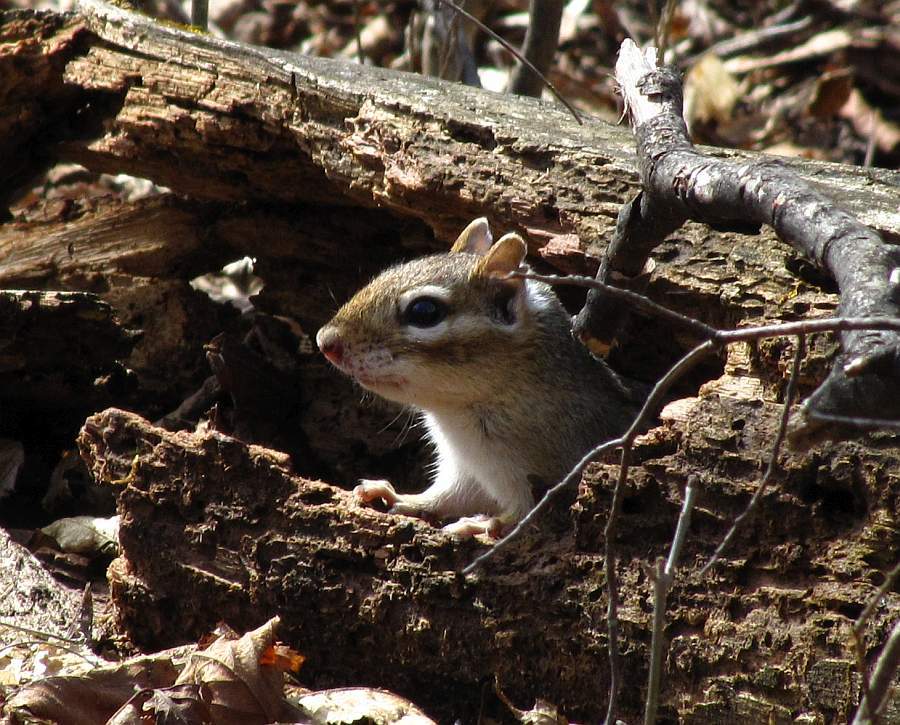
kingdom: Animalia
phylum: Chordata
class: Mammalia
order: Rodentia
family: Sciuridae
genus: Tamias
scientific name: Tamias striatus
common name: Eastern chipmunk
